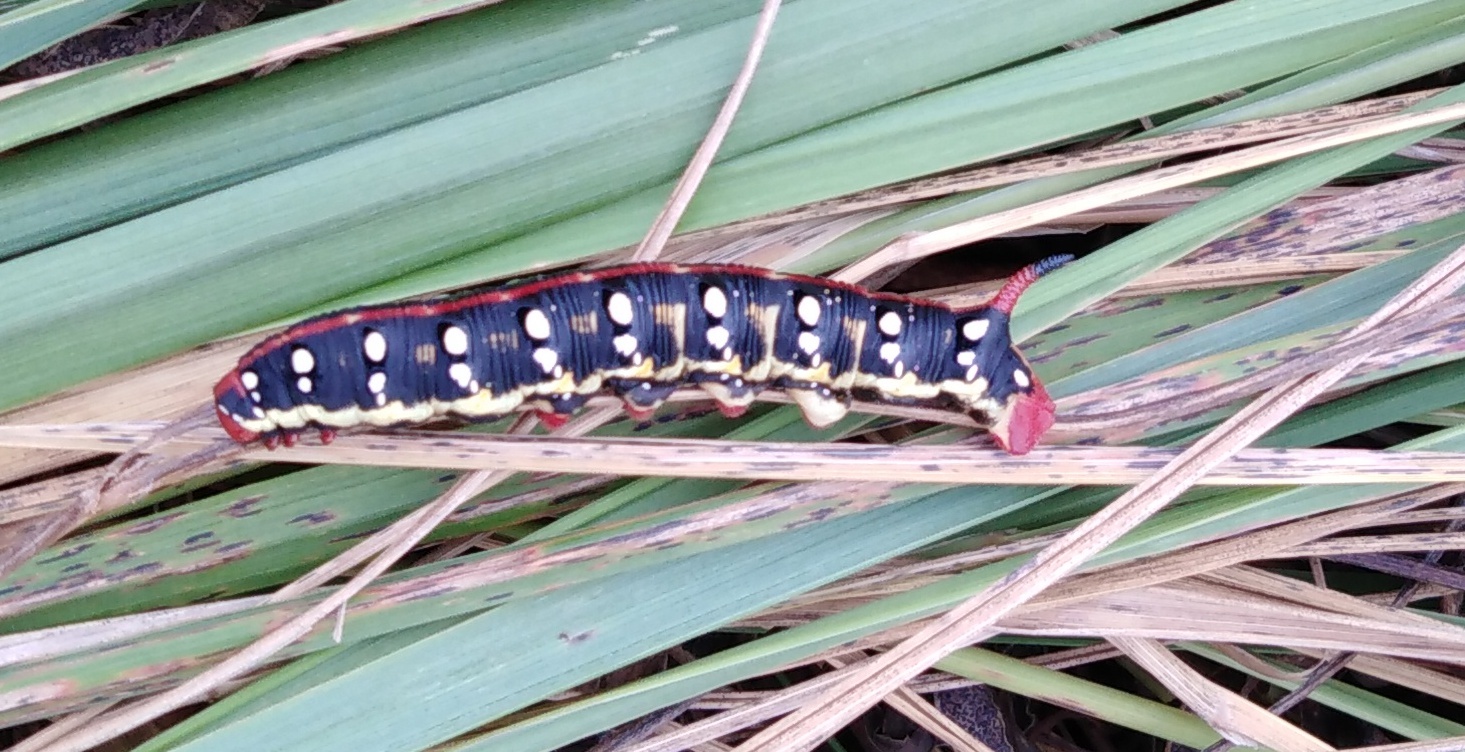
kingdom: Animalia
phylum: Arthropoda
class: Insecta
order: Lepidoptera
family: Sphingidae
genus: Hyles
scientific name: Hyles gallii
